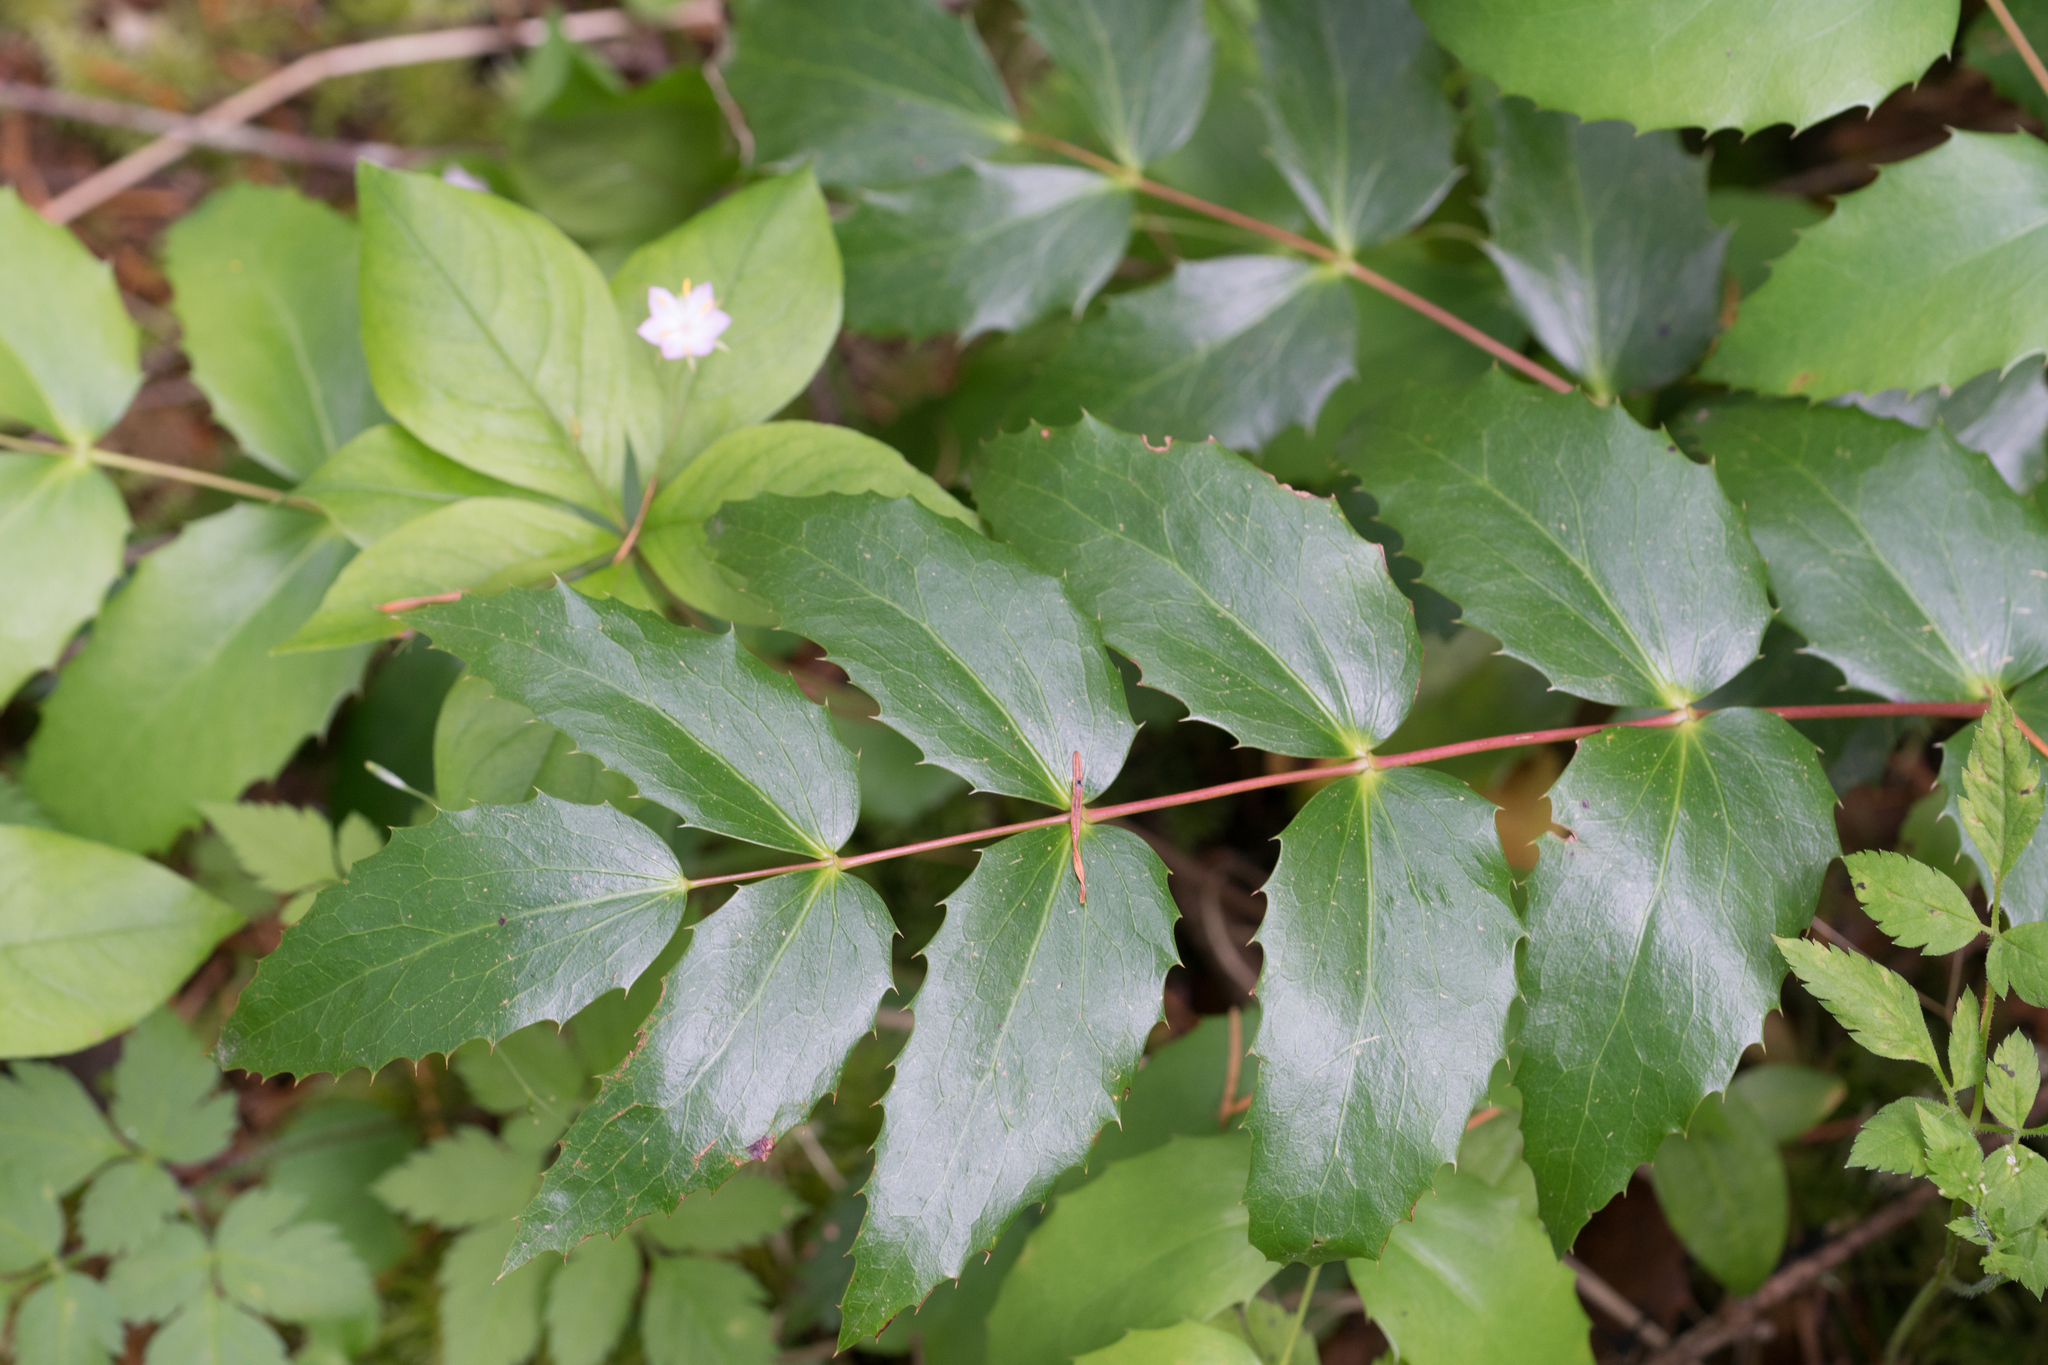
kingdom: Plantae
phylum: Tracheophyta
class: Magnoliopsida
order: Ranunculales
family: Berberidaceae
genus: Mahonia
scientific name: Mahonia nervosa
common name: Cascade oregon-grape
